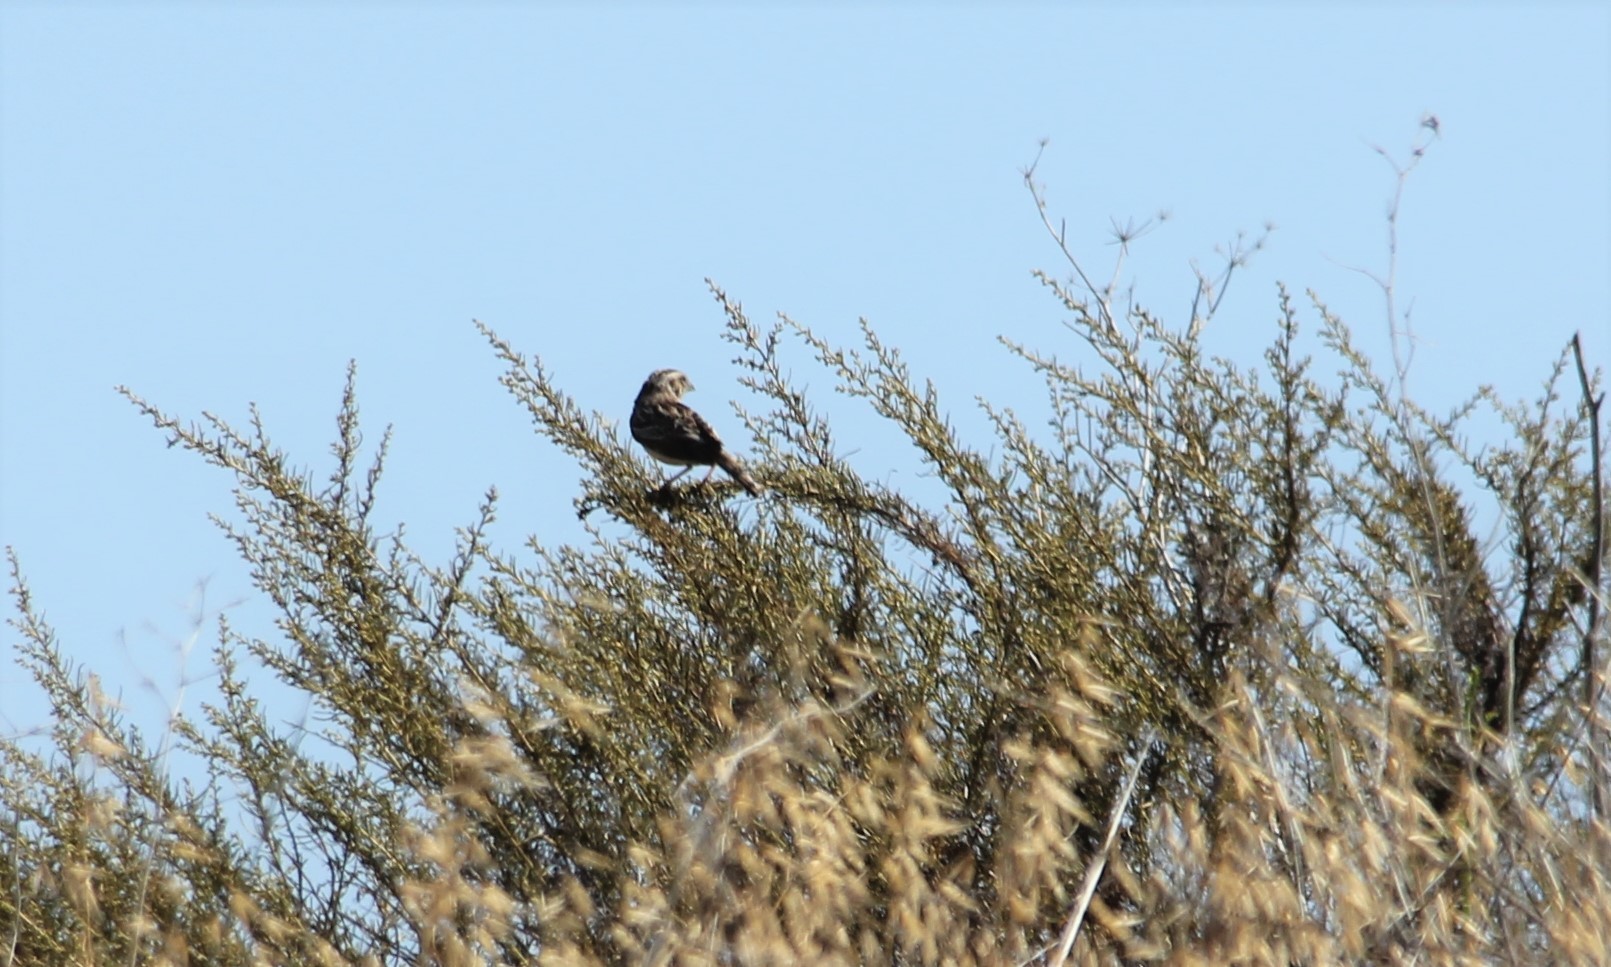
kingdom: Animalia
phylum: Chordata
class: Aves
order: Passeriformes
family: Passerellidae
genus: Ammodramus
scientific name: Ammodramus savannarum
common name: Grasshopper sparrow
